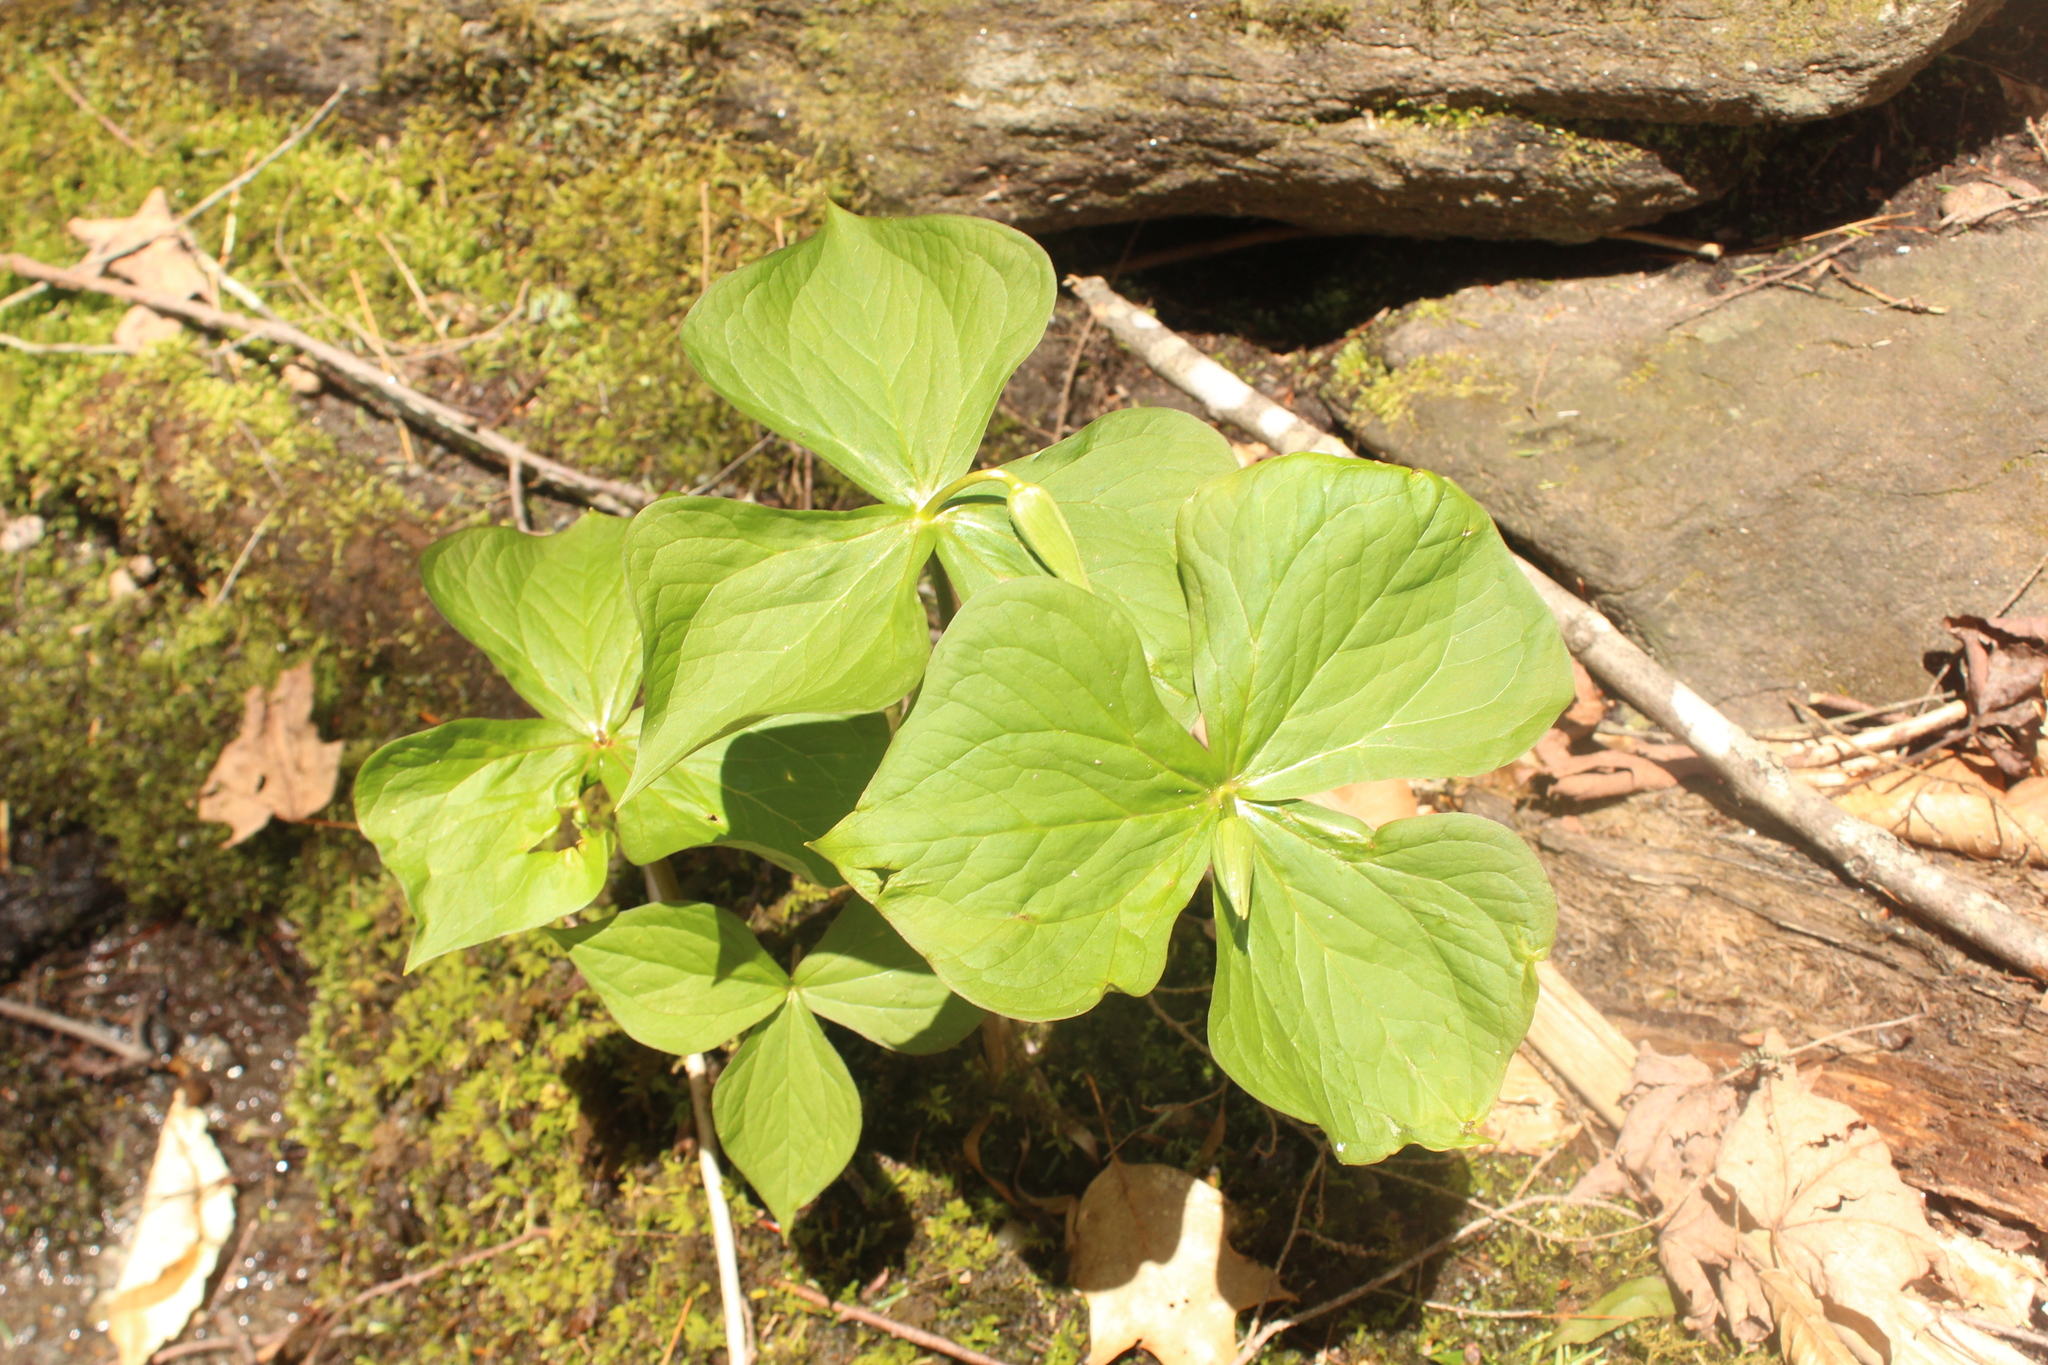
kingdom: Plantae
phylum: Tracheophyta
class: Liliopsida
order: Liliales
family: Melanthiaceae
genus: Trillium
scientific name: Trillium erectum
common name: Purple trillium
